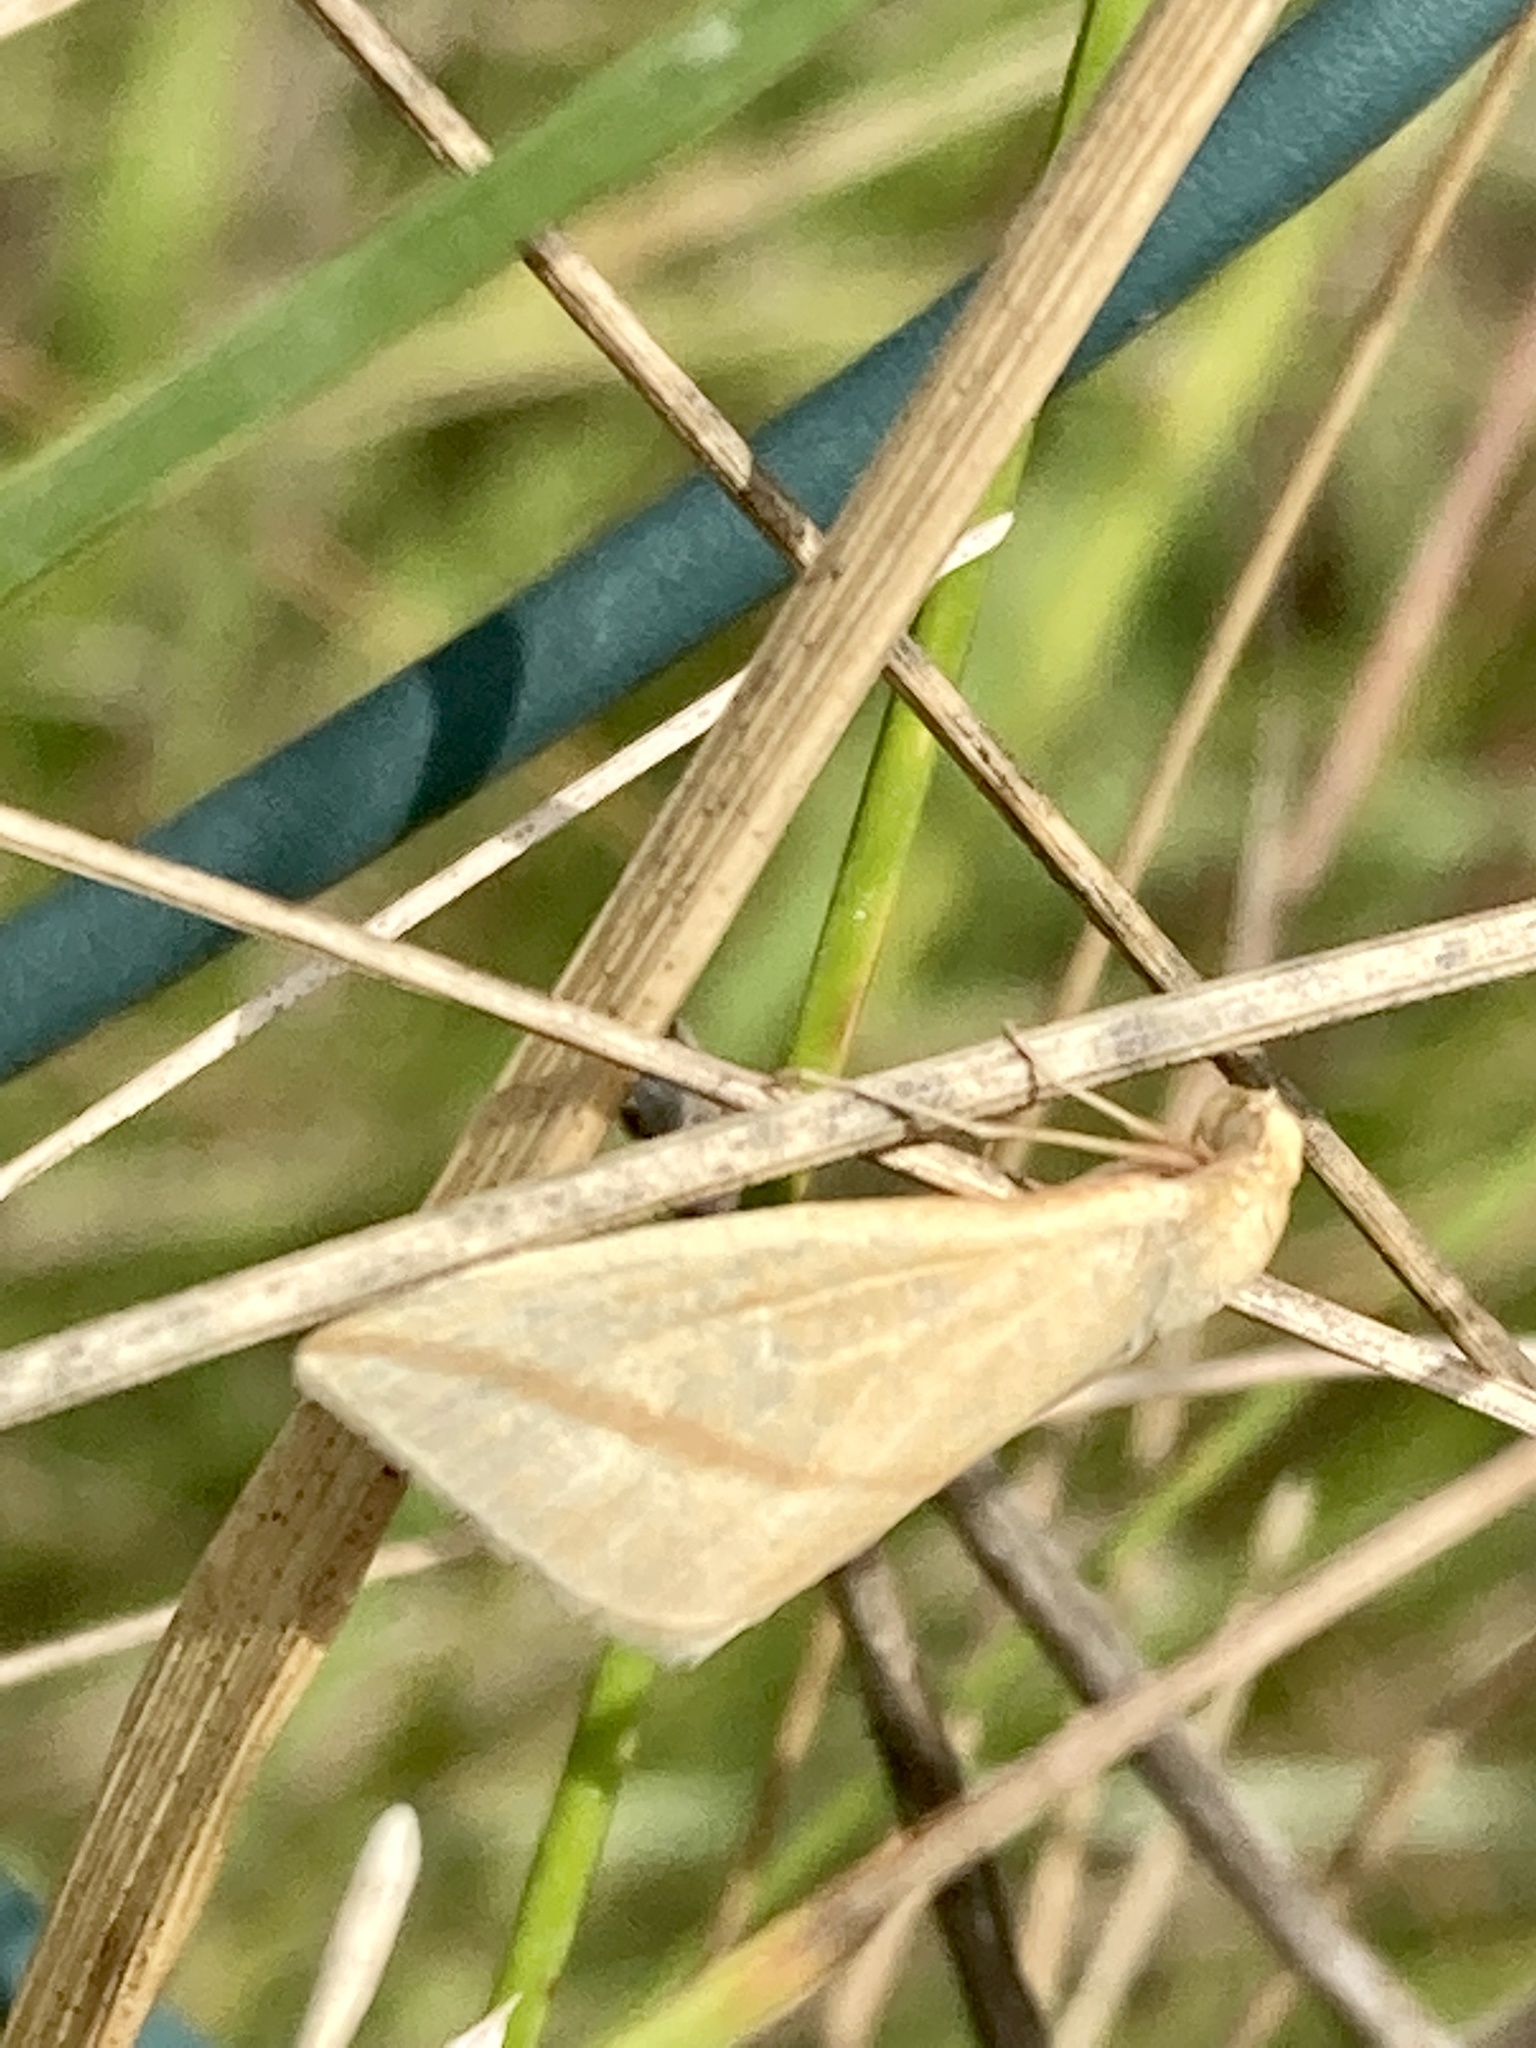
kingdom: Animalia
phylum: Arthropoda
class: Insecta
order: Lepidoptera
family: Geometridae
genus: Rhodometra
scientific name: Rhodometra sacraria
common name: Vestal
